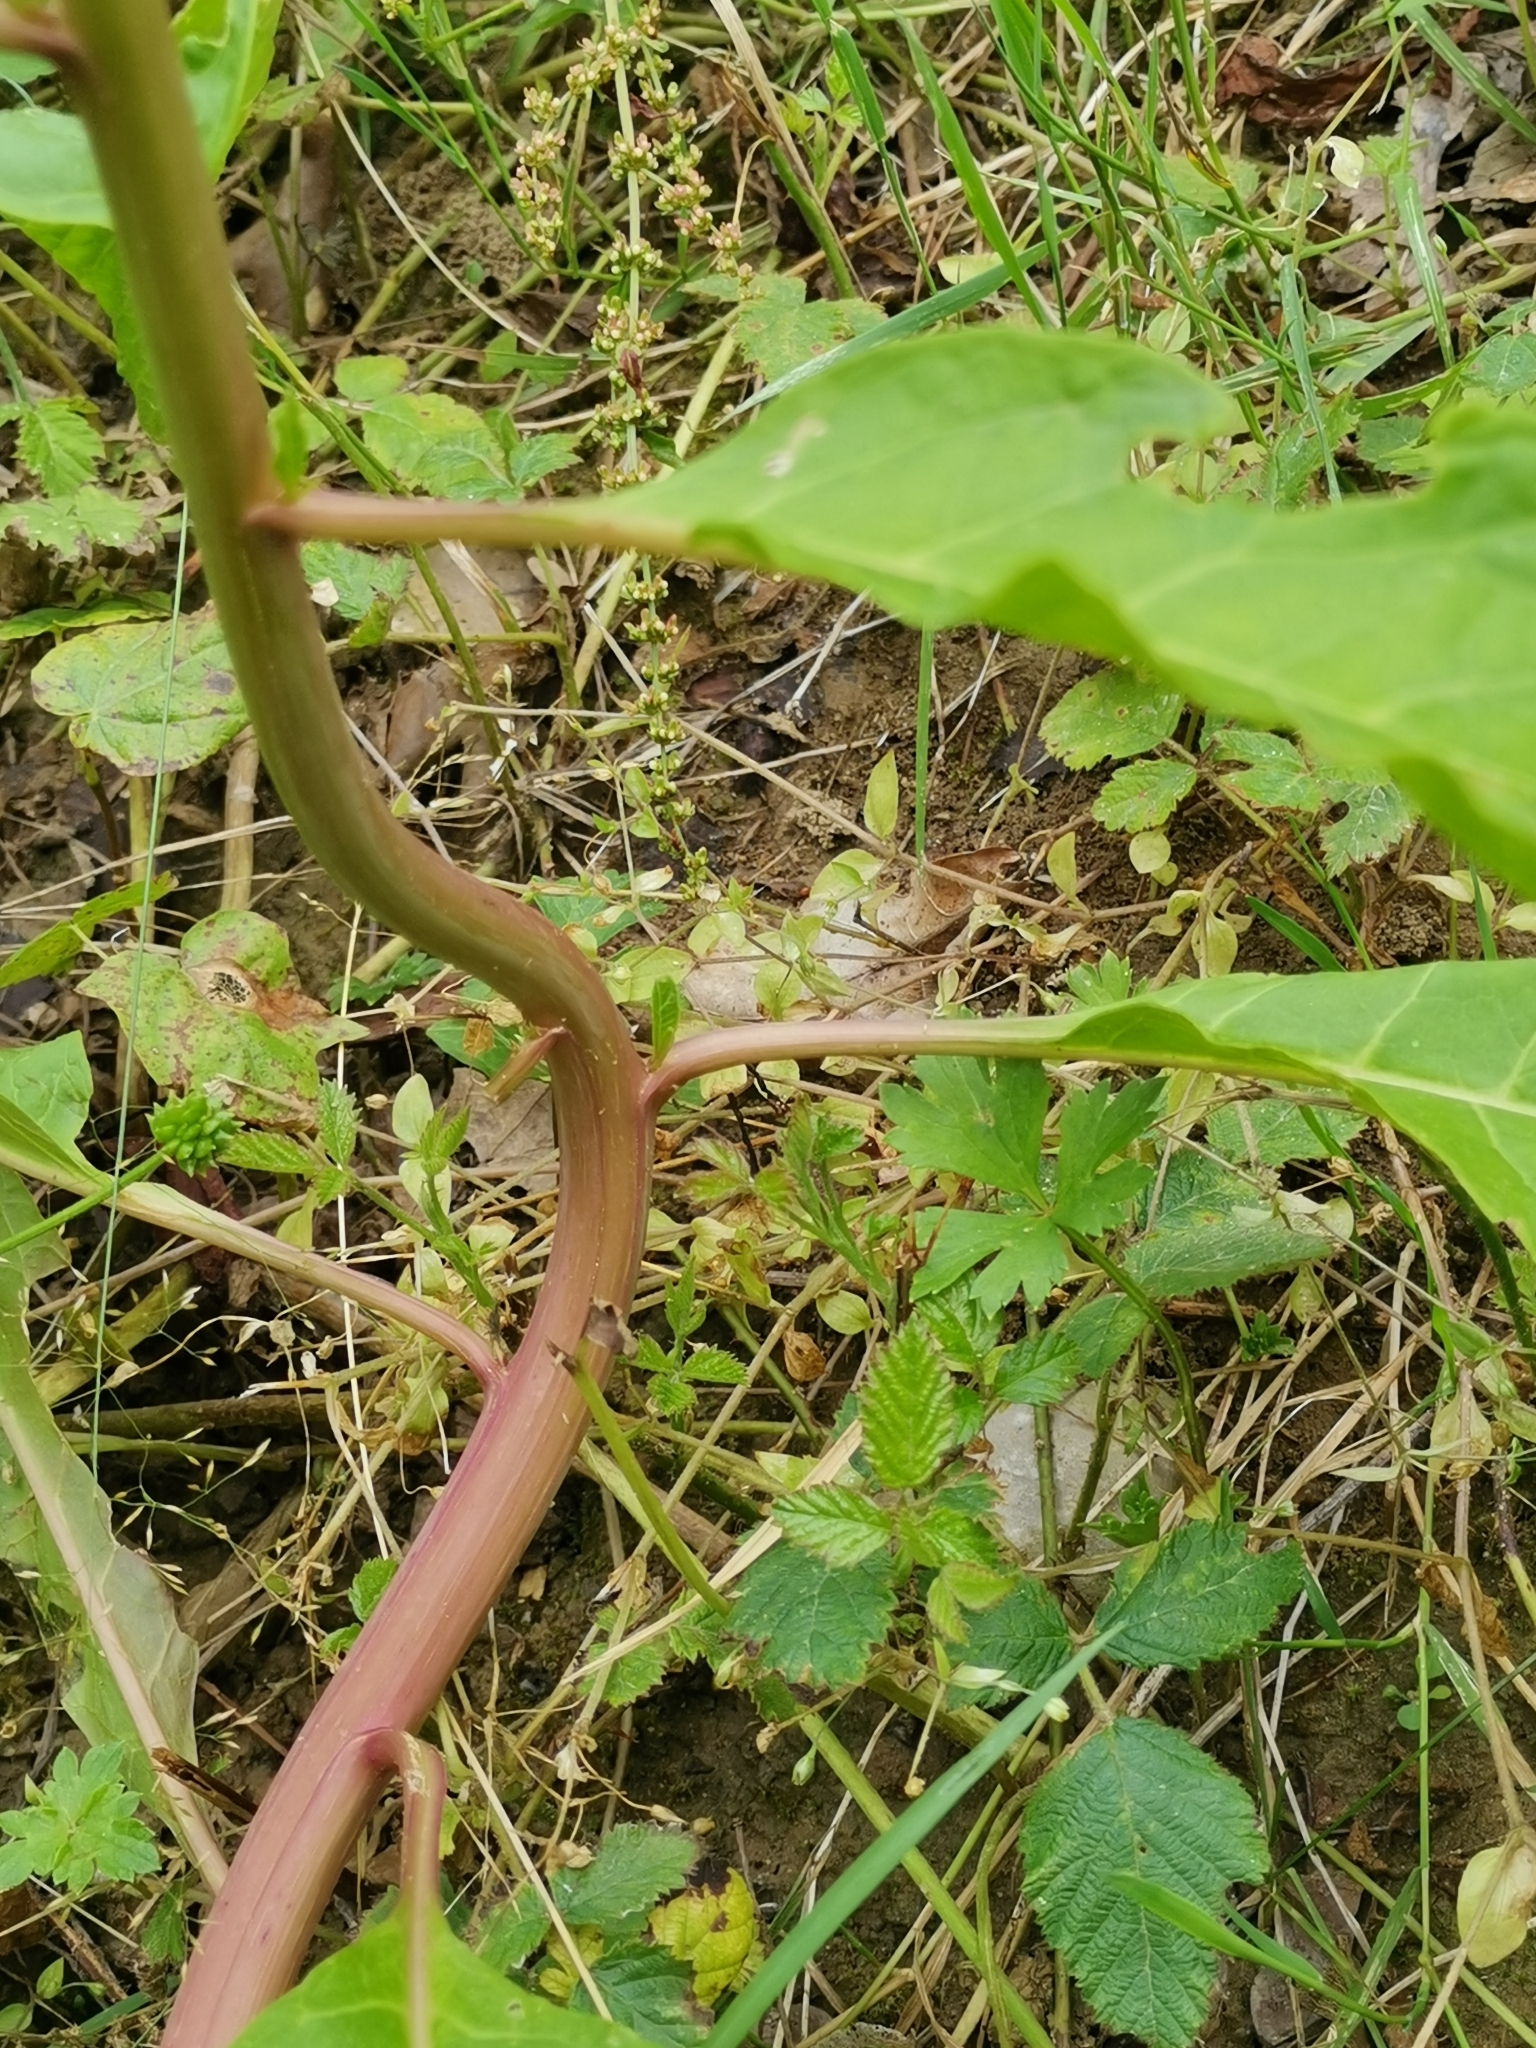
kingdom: Plantae
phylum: Tracheophyta
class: Magnoliopsida
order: Caryophyllales
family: Phytolaccaceae
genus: Phytolacca
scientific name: Phytolacca americana
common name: American pokeweed
